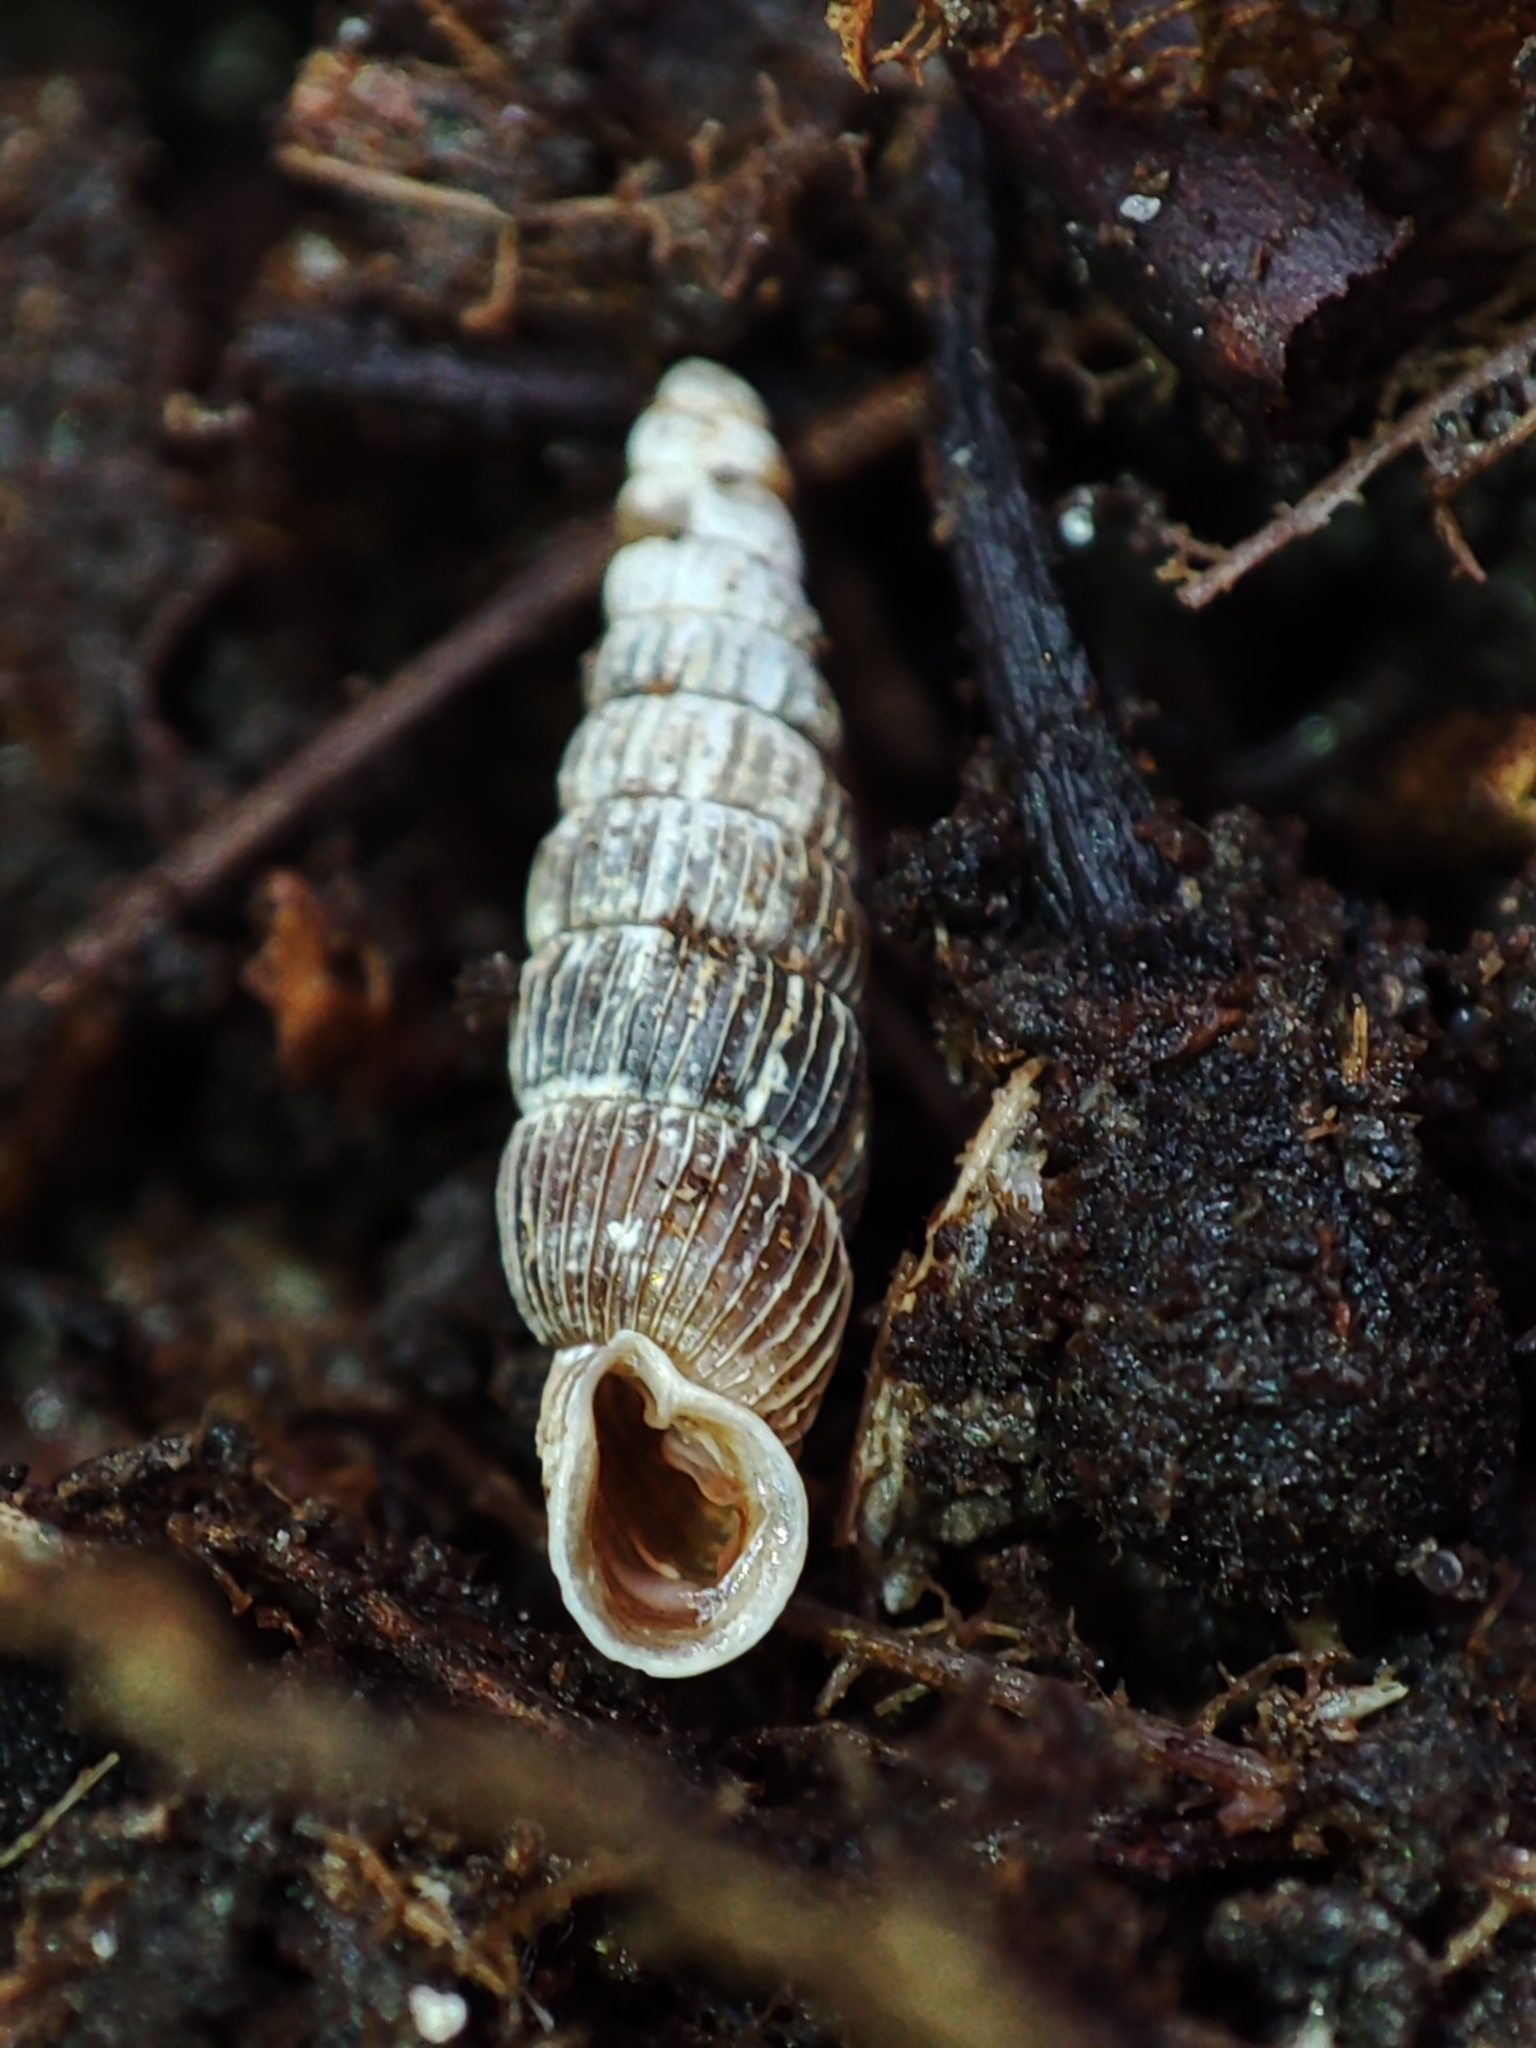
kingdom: Animalia
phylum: Mollusca
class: Gastropoda
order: Stylommatophora
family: Clausiliidae
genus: Ruthenica
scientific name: Ruthenica filograna
